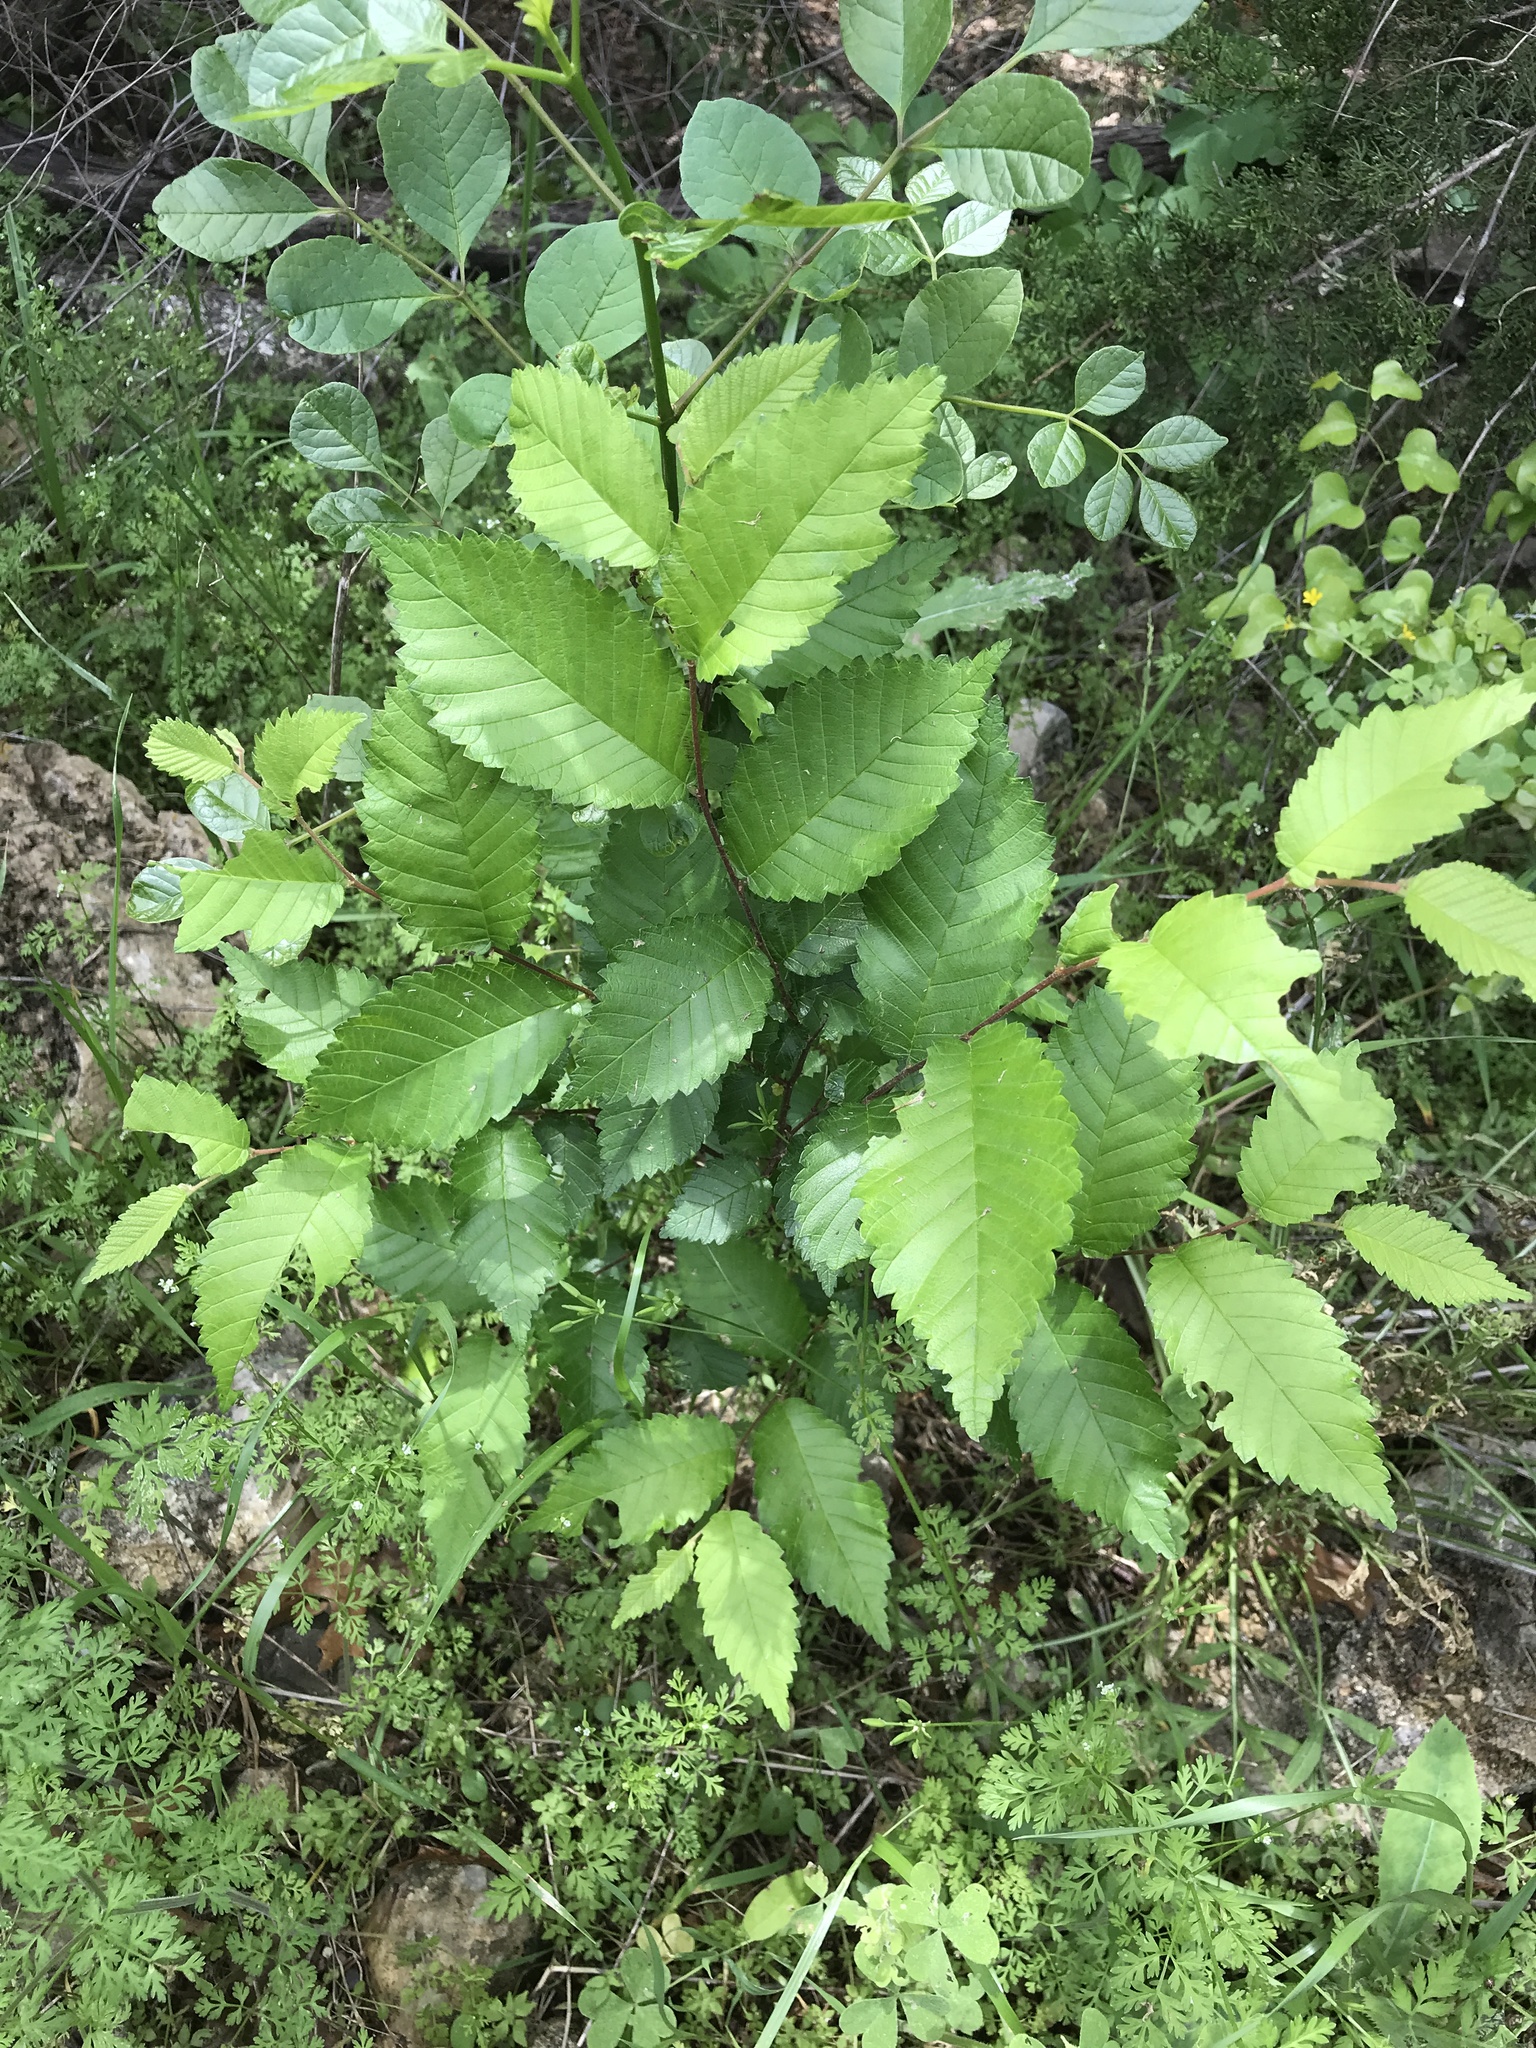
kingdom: Plantae
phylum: Tracheophyta
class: Magnoliopsida
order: Rosales
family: Ulmaceae
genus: Ulmus
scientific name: Ulmus crassifolia
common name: Basket elm
